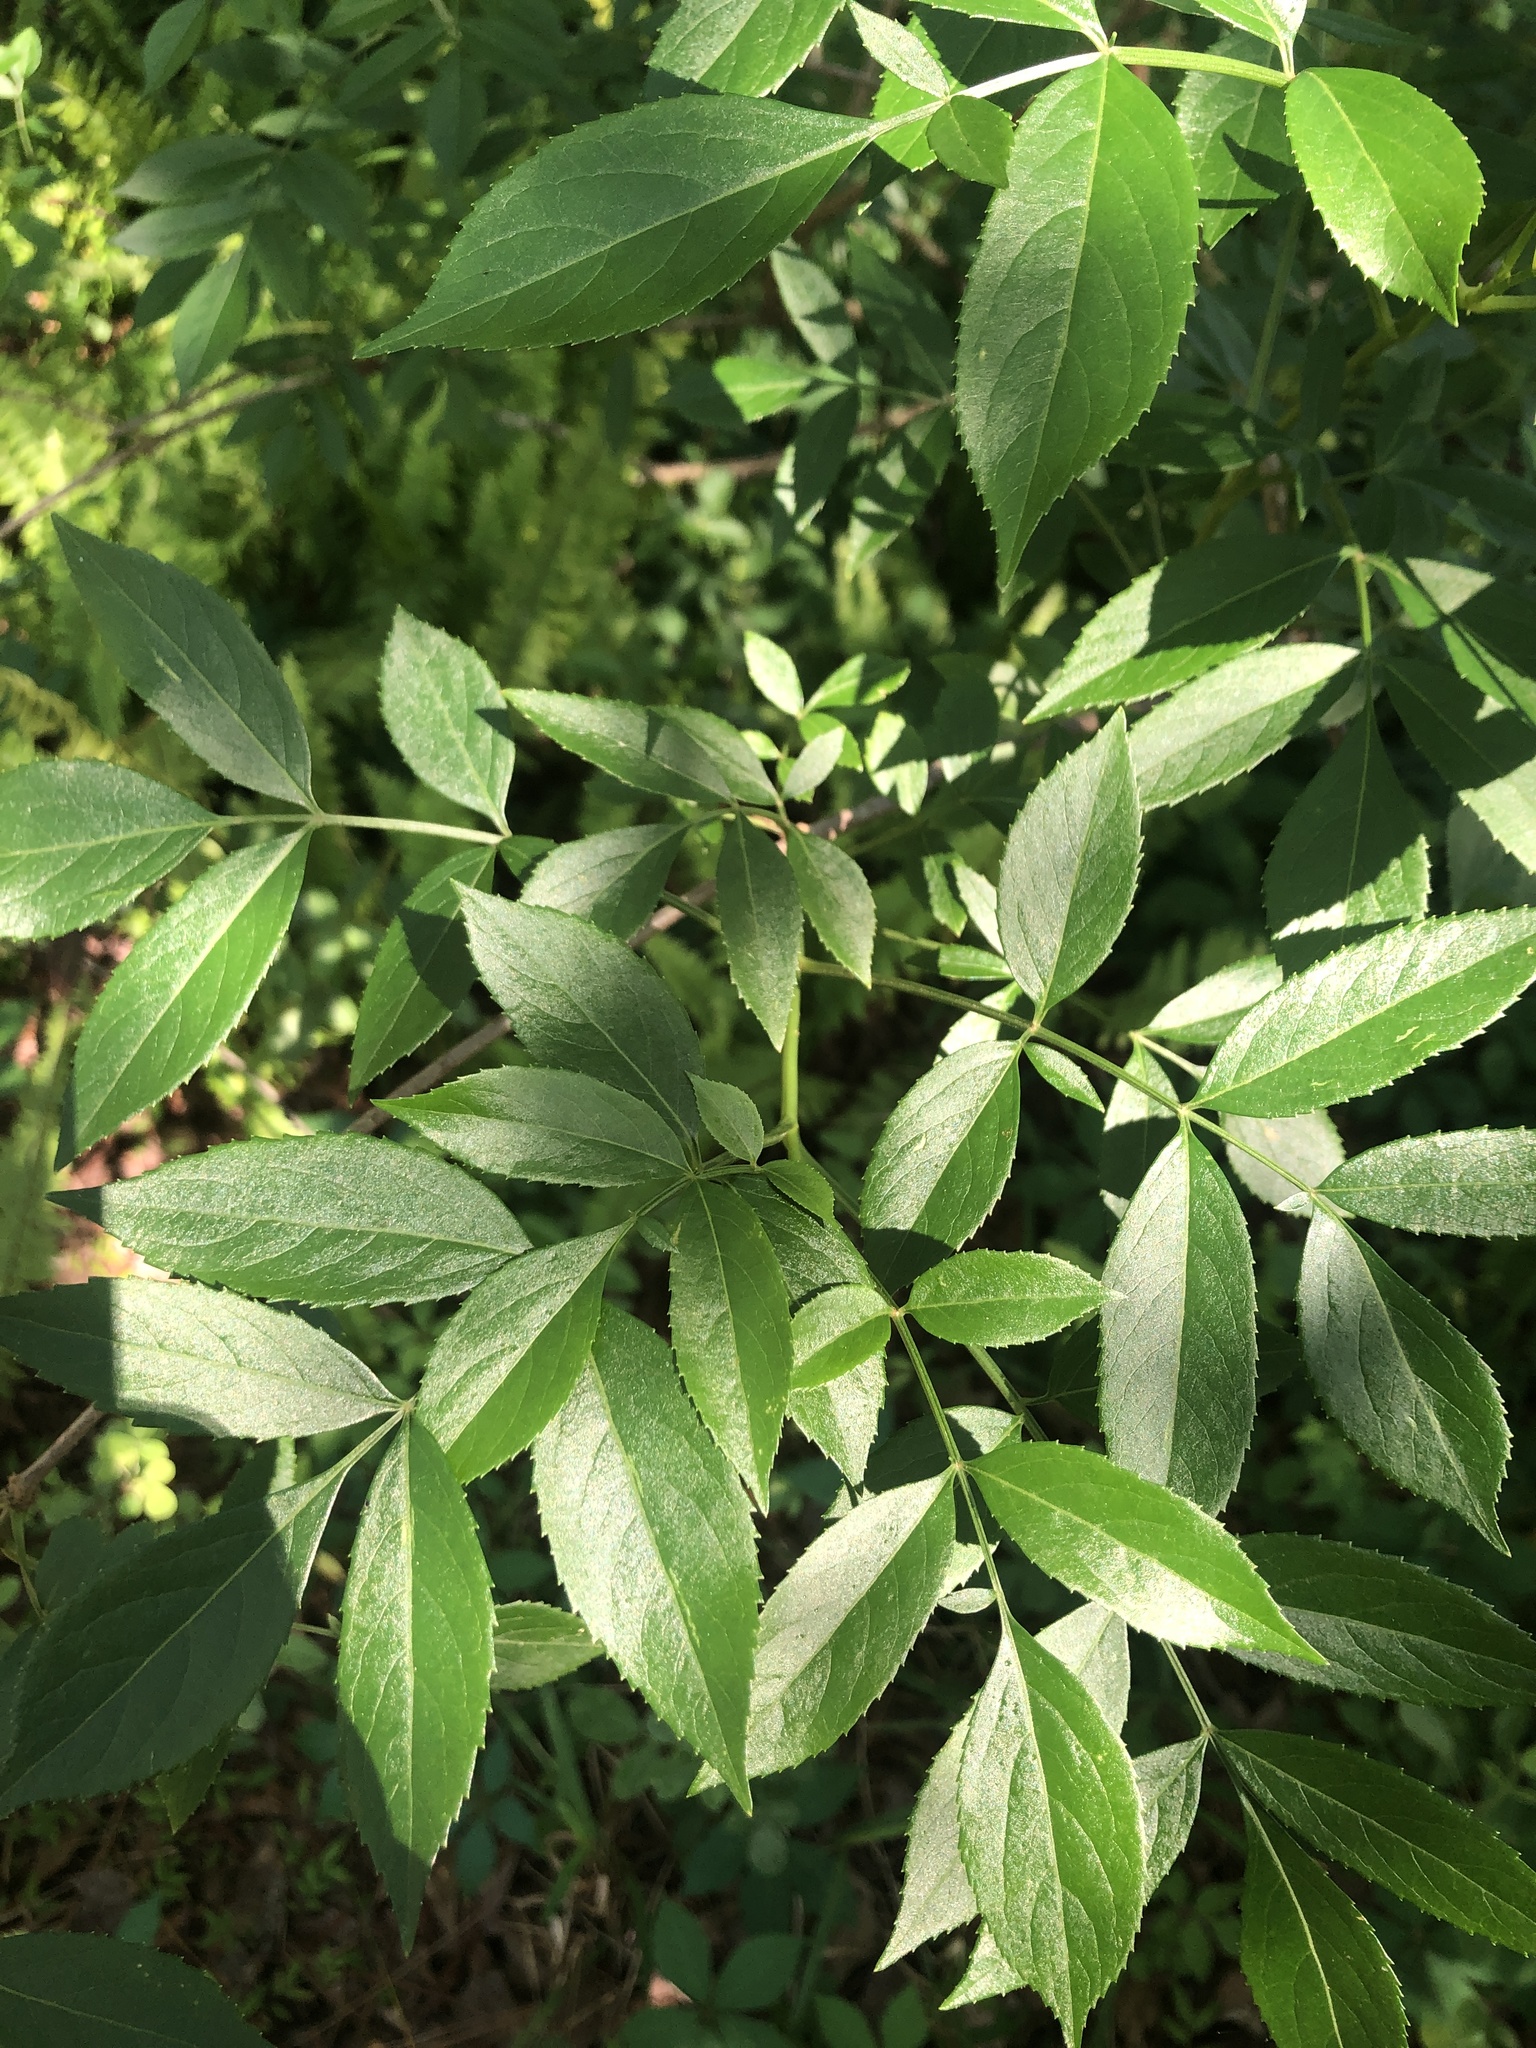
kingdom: Plantae
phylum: Tracheophyta
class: Magnoliopsida
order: Dipsacales
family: Viburnaceae
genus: Sambucus
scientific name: Sambucus canadensis
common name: American elder
